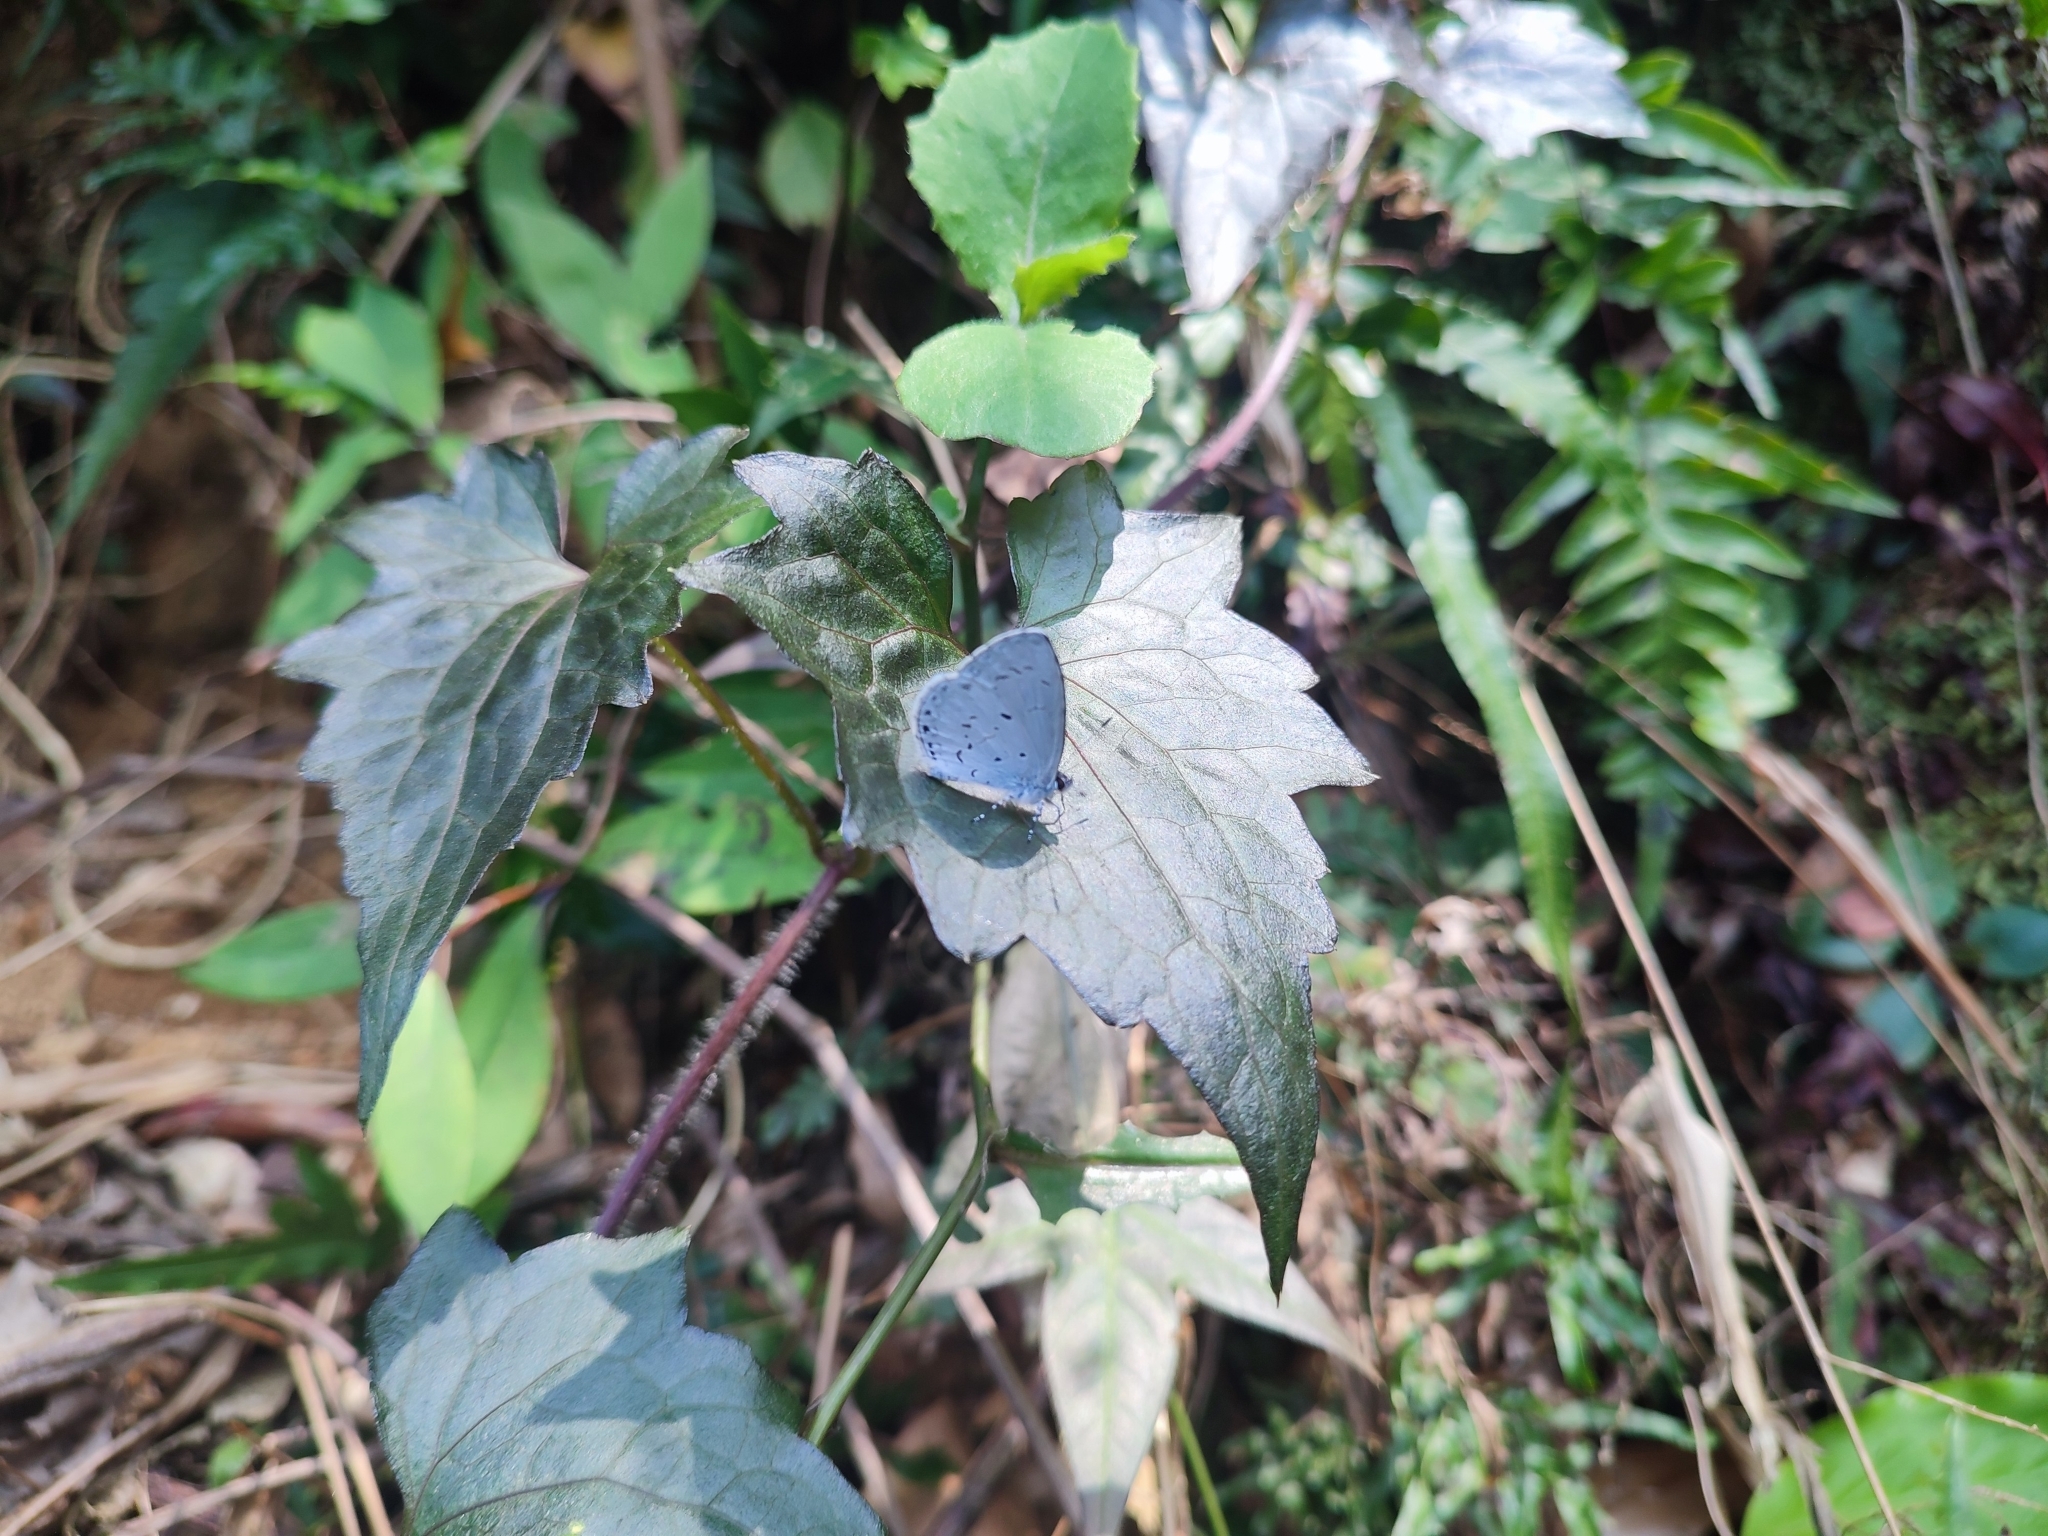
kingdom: Animalia
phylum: Arthropoda
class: Insecta
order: Lepidoptera
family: Lycaenidae
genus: Acytolepis
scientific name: Acytolepis puspa
